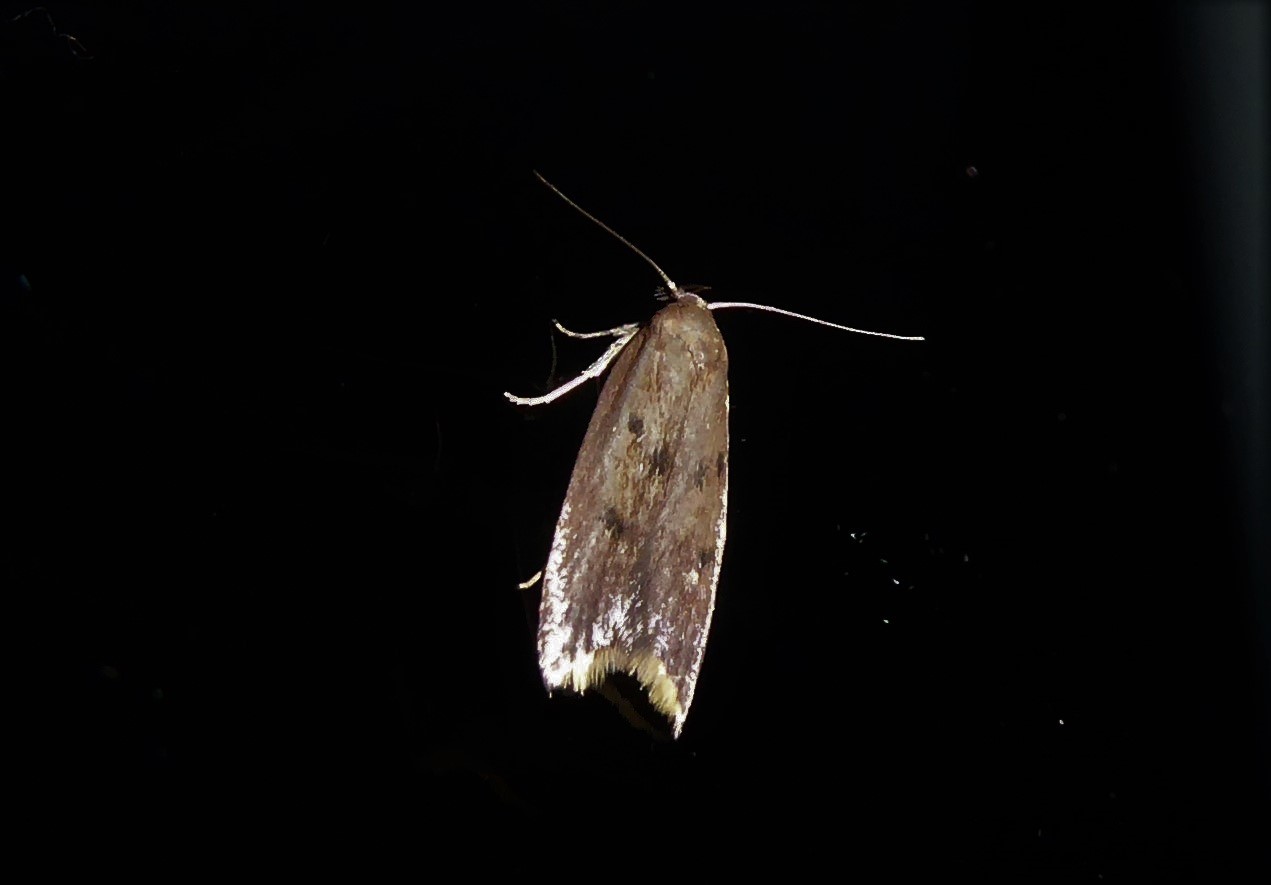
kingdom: Animalia
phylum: Arthropoda
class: Insecta
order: Lepidoptera
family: Oecophoridae
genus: Tachystola
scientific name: Tachystola acroxantha
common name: Ruddy streak
